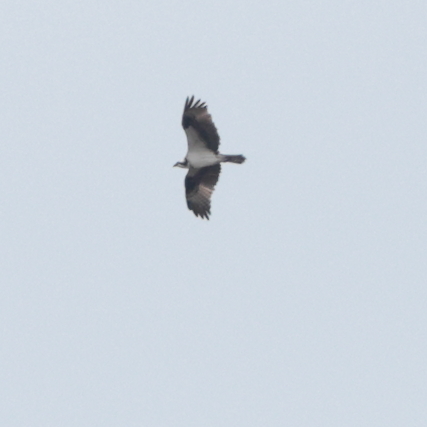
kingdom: Animalia
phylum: Chordata
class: Aves
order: Accipitriformes
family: Pandionidae
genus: Pandion
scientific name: Pandion haliaetus
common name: Osprey
